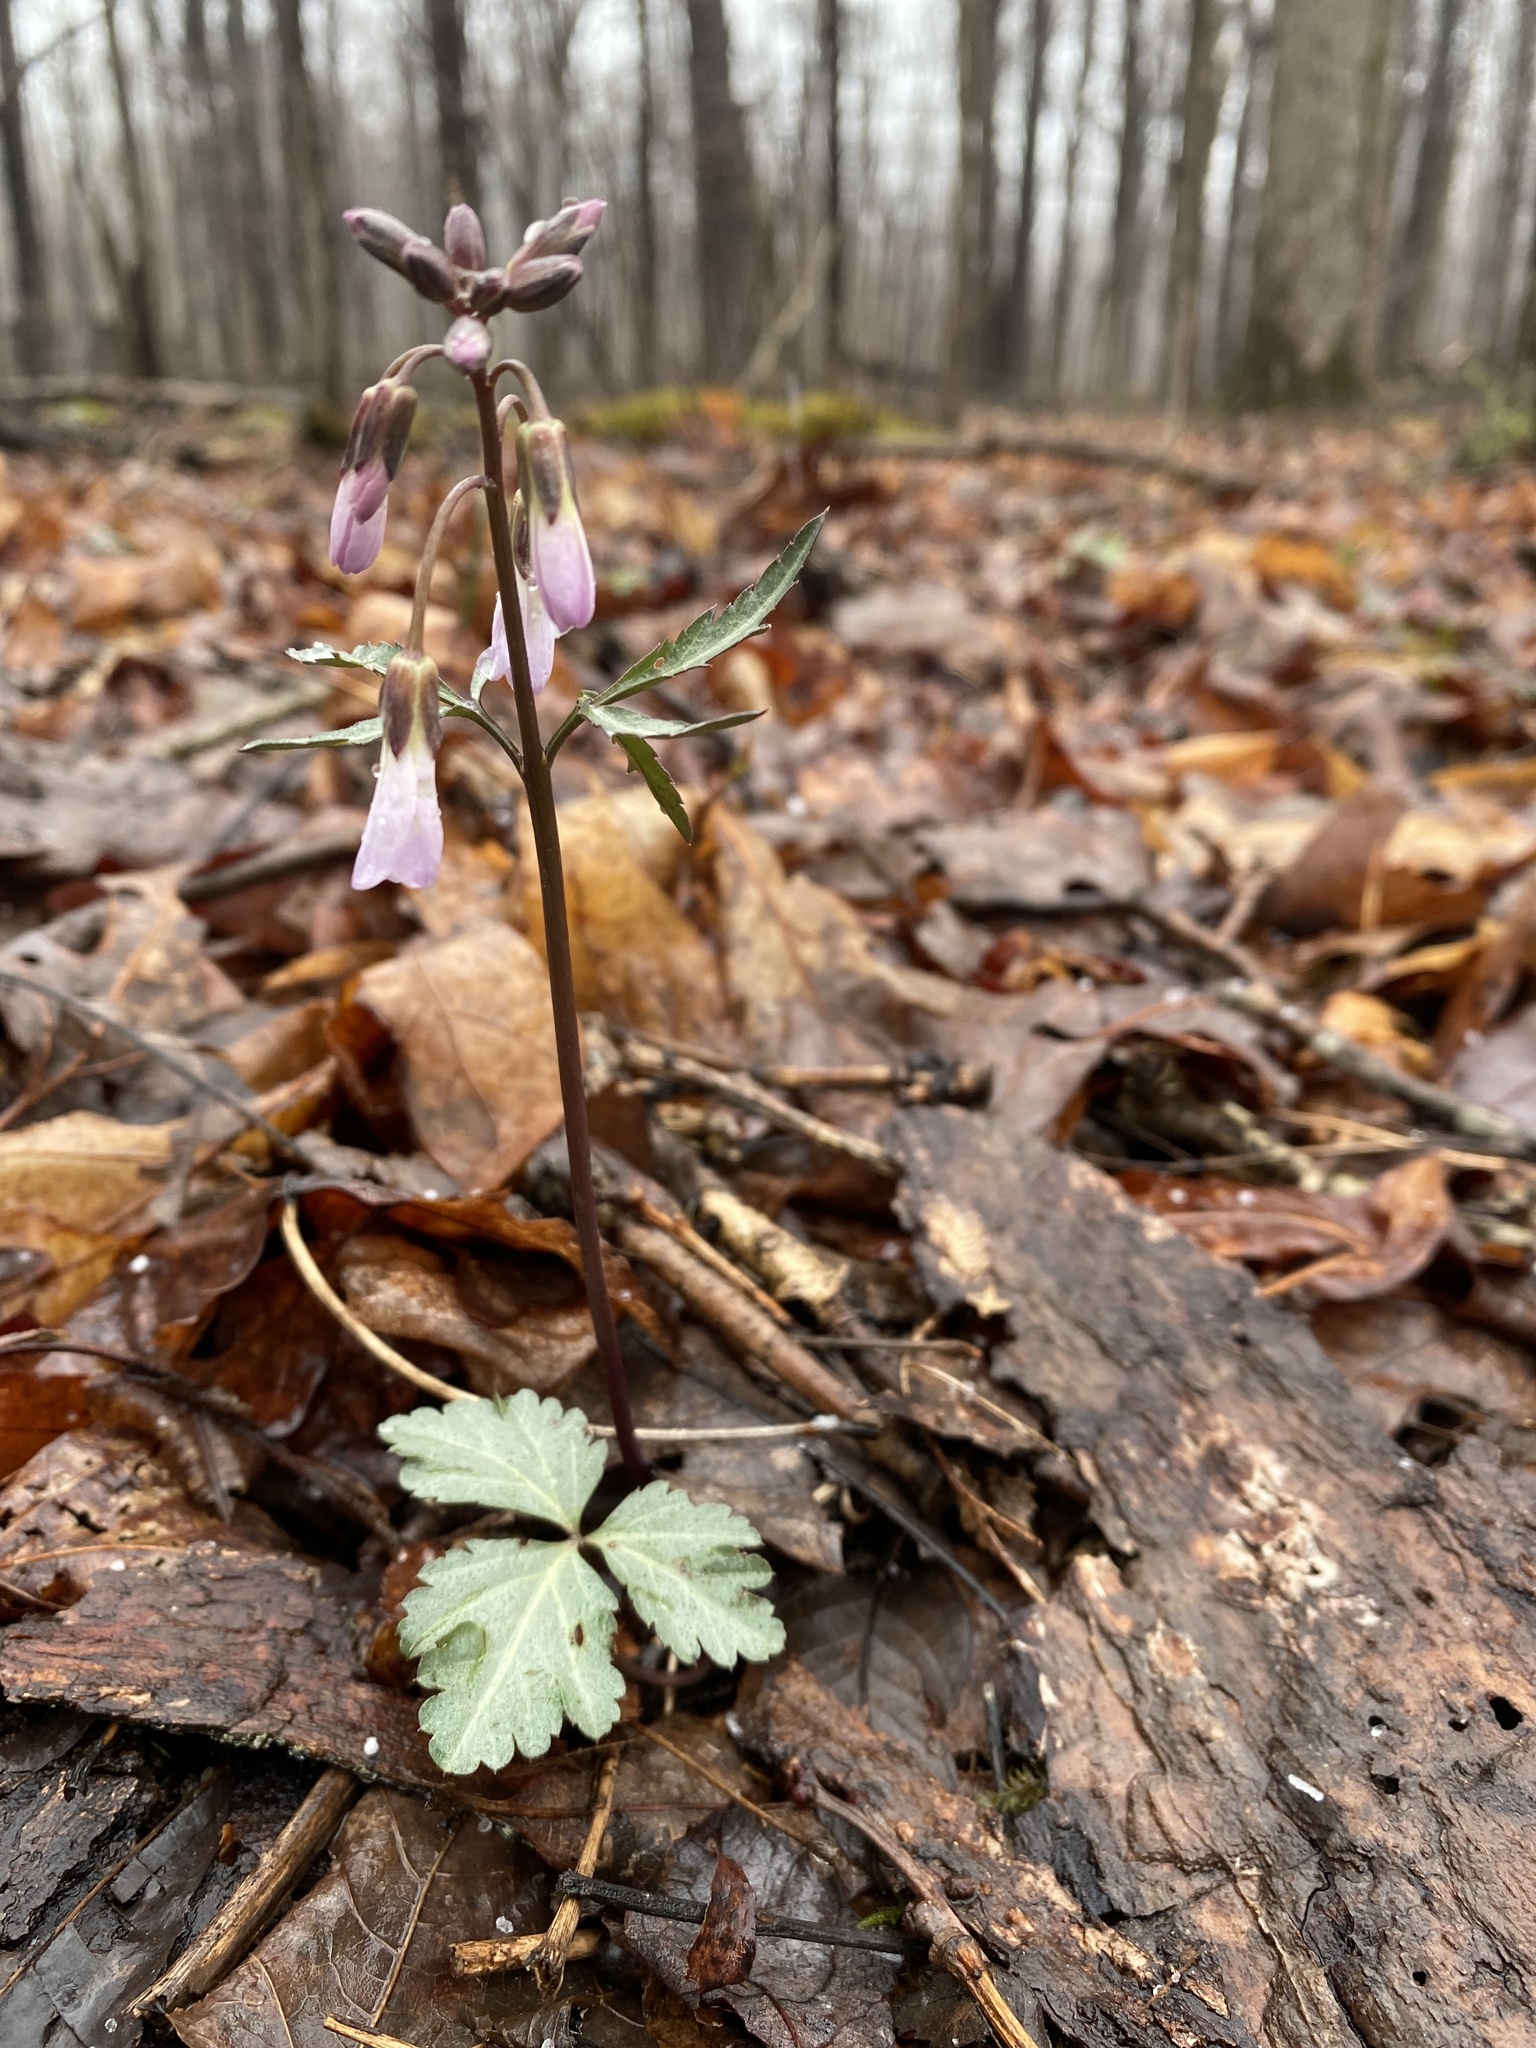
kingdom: Plantae
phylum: Tracheophyta
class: Magnoliopsida
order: Brassicales
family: Brassicaceae
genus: Cardamine
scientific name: Cardamine angustata
